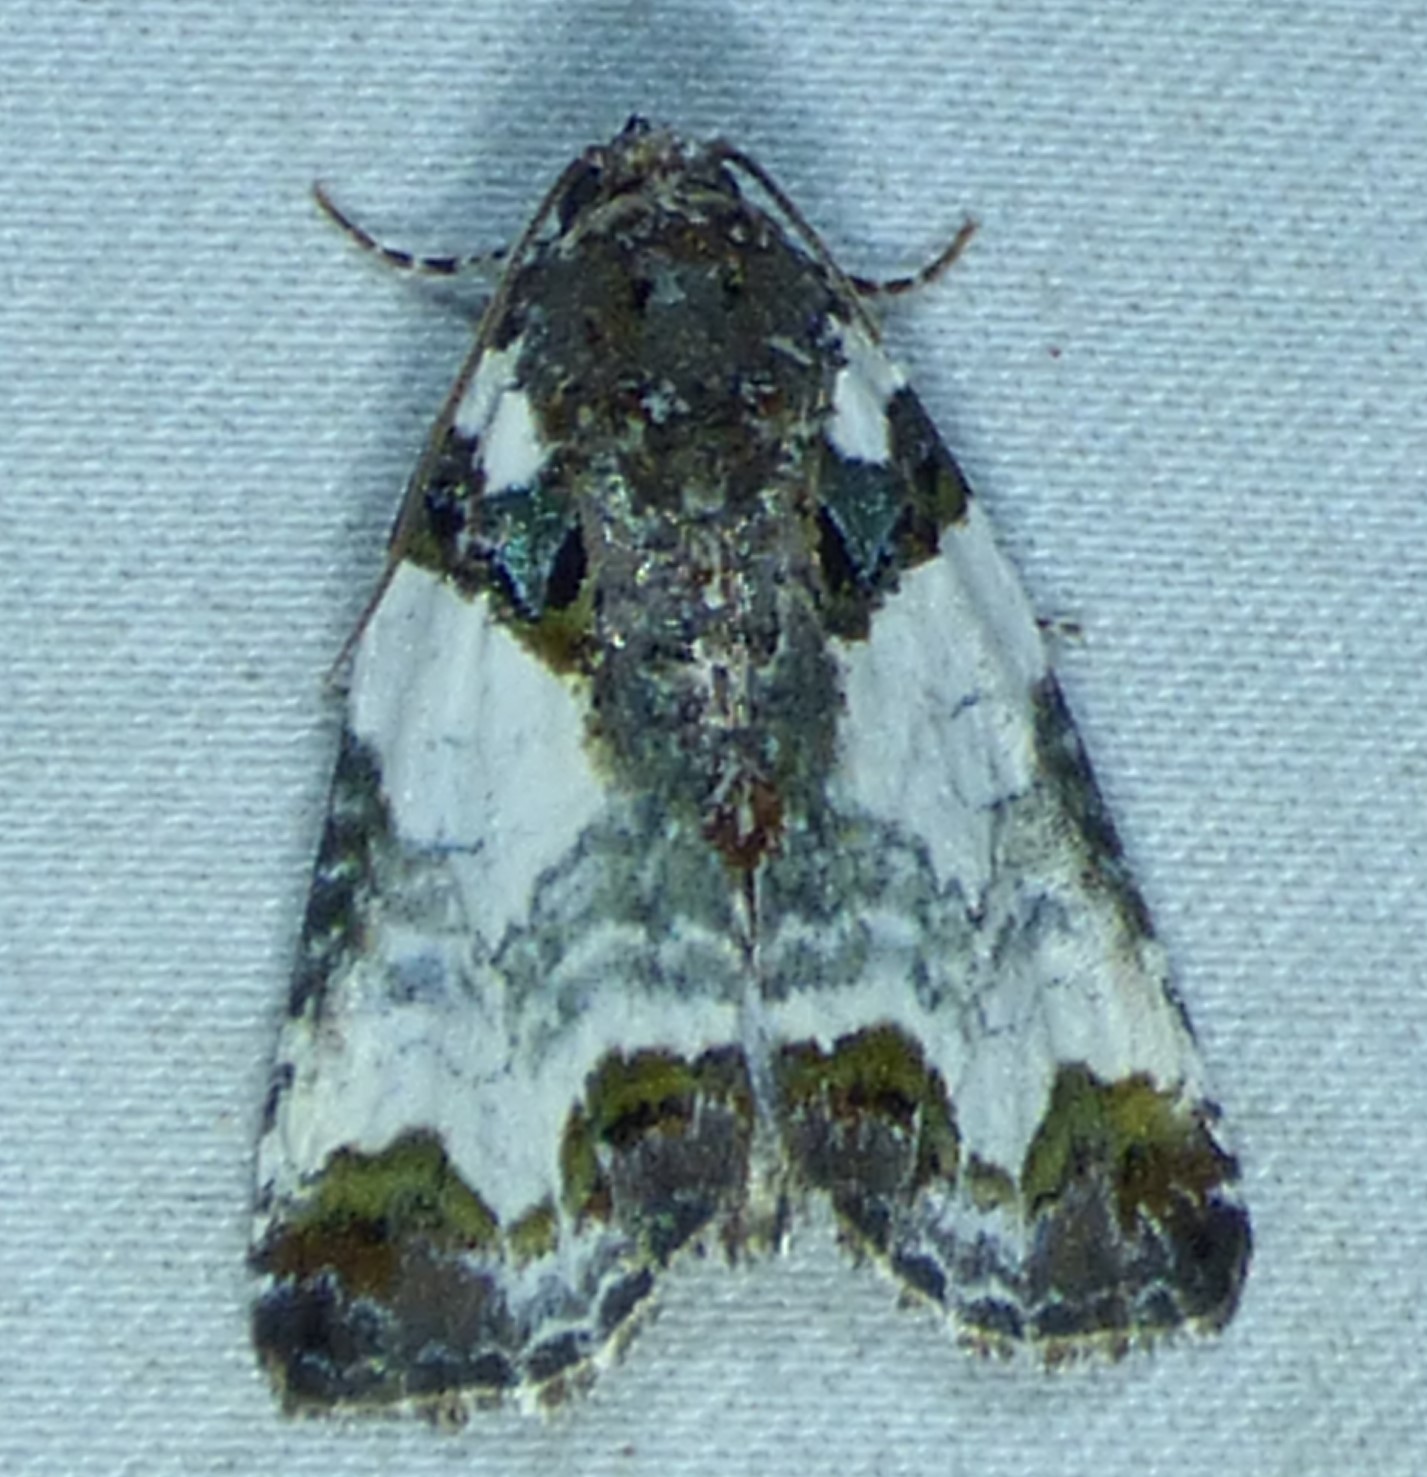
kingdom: Animalia
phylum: Arthropoda
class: Insecta
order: Lepidoptera
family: Noctuidae
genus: Cerma
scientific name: Cerma cerintha
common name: Tufted bird-dropping moth
